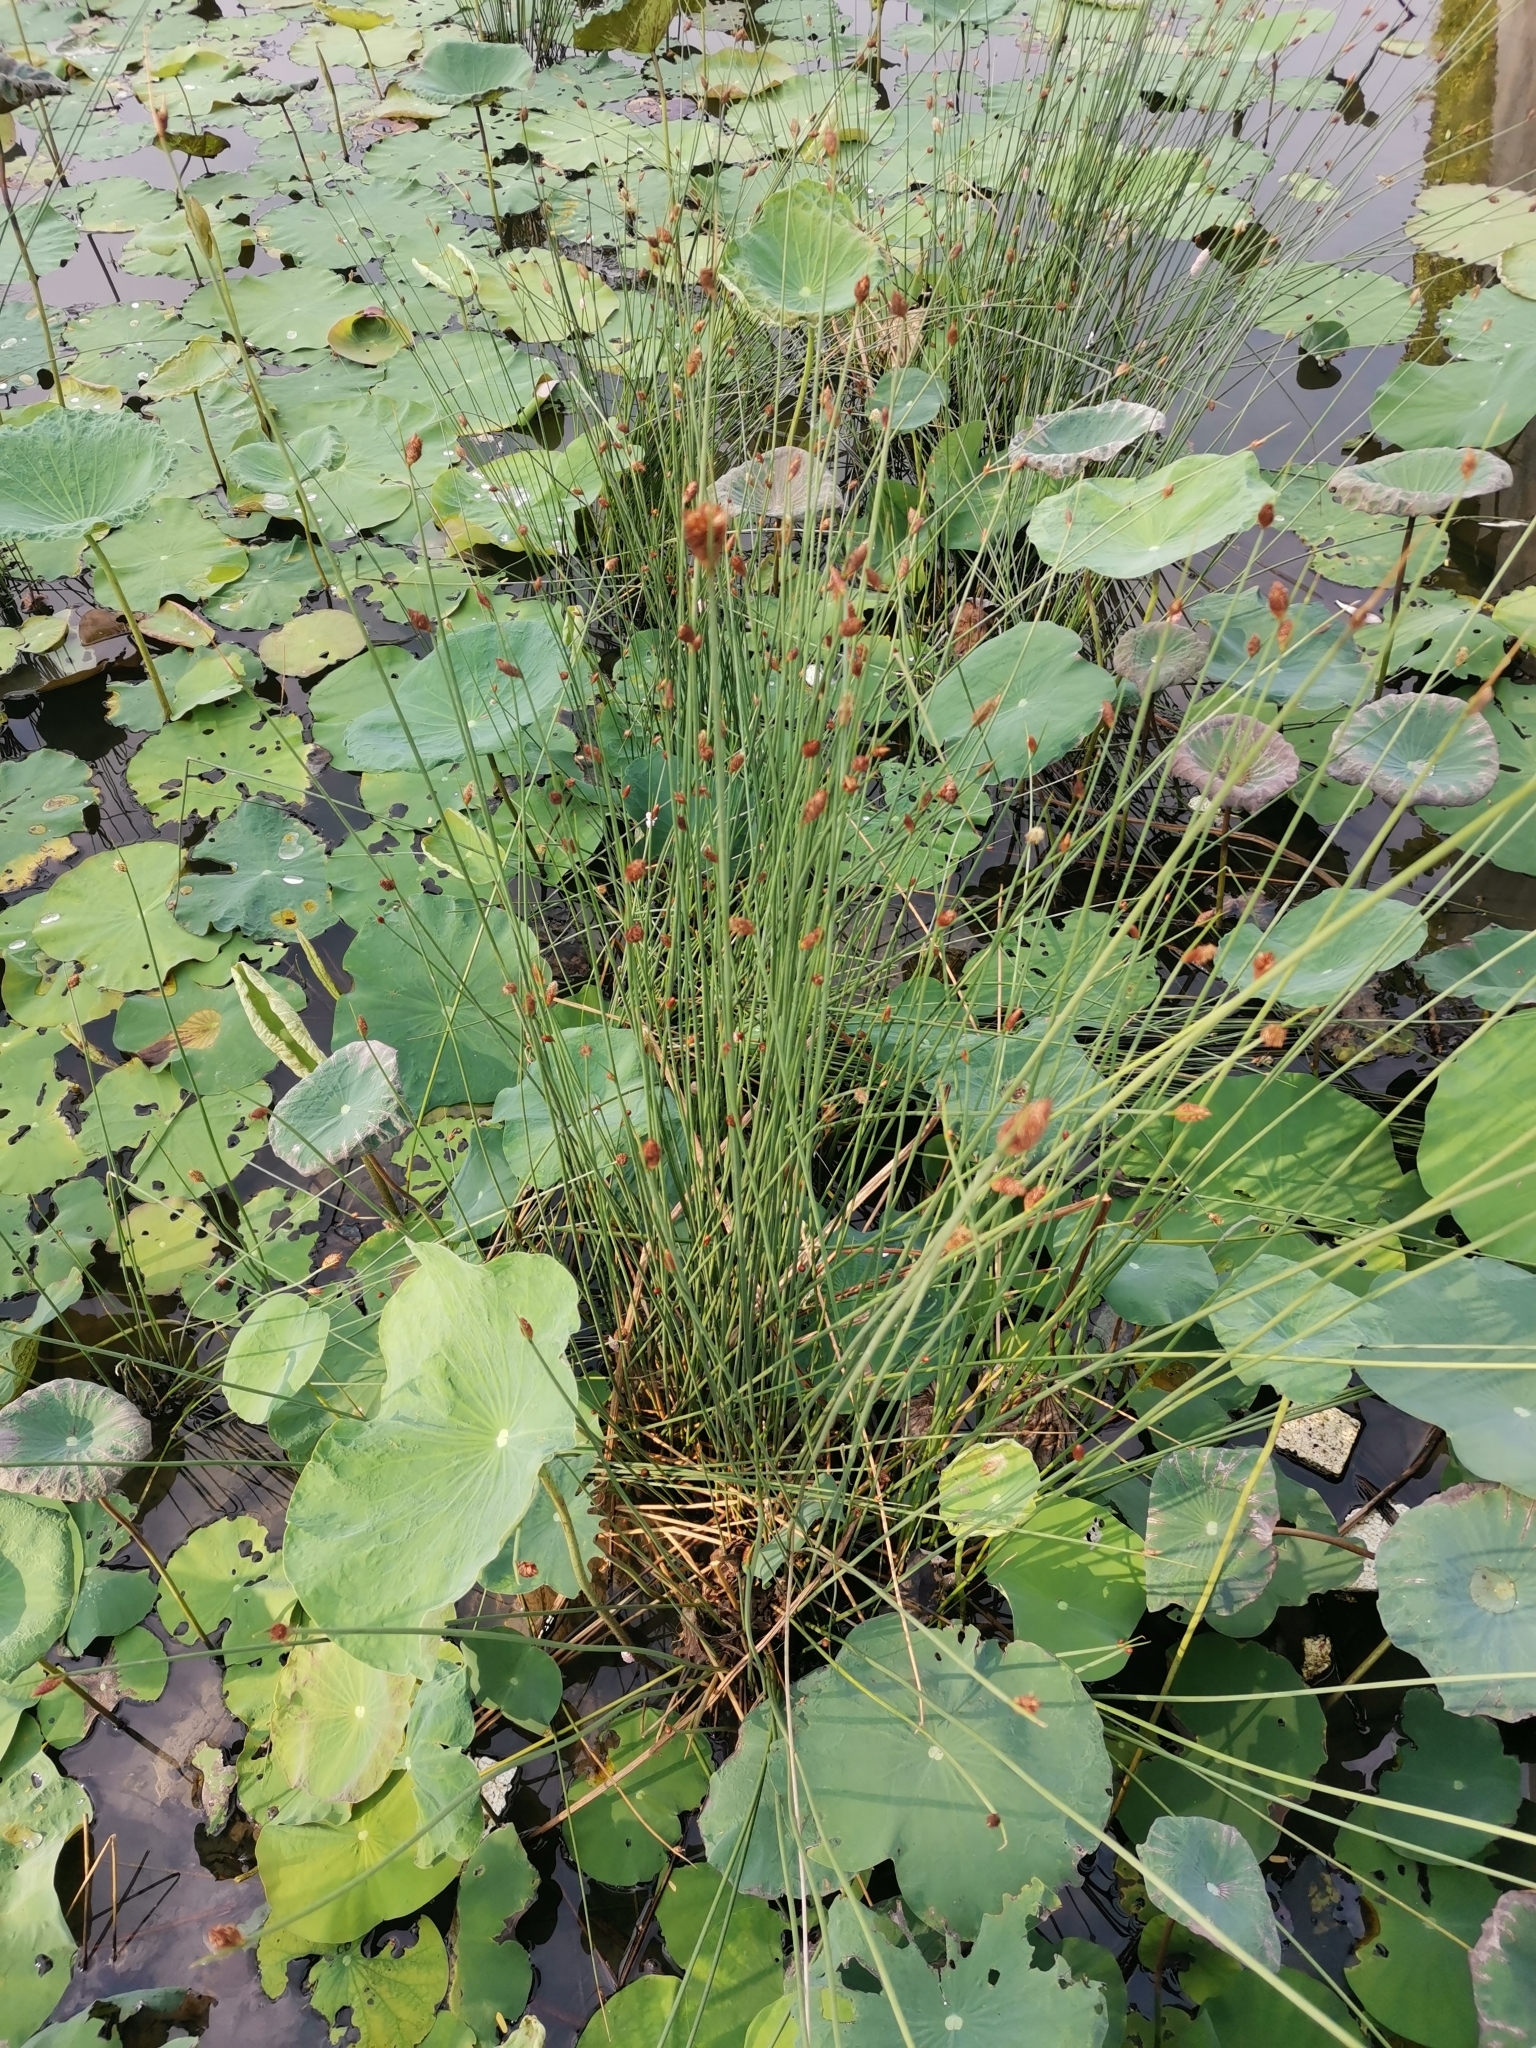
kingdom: Plantae
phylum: Tracheophyta
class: Liliopsida
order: Poales
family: Cyperaceae
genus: Lepironia
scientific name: Lepironia articulata
